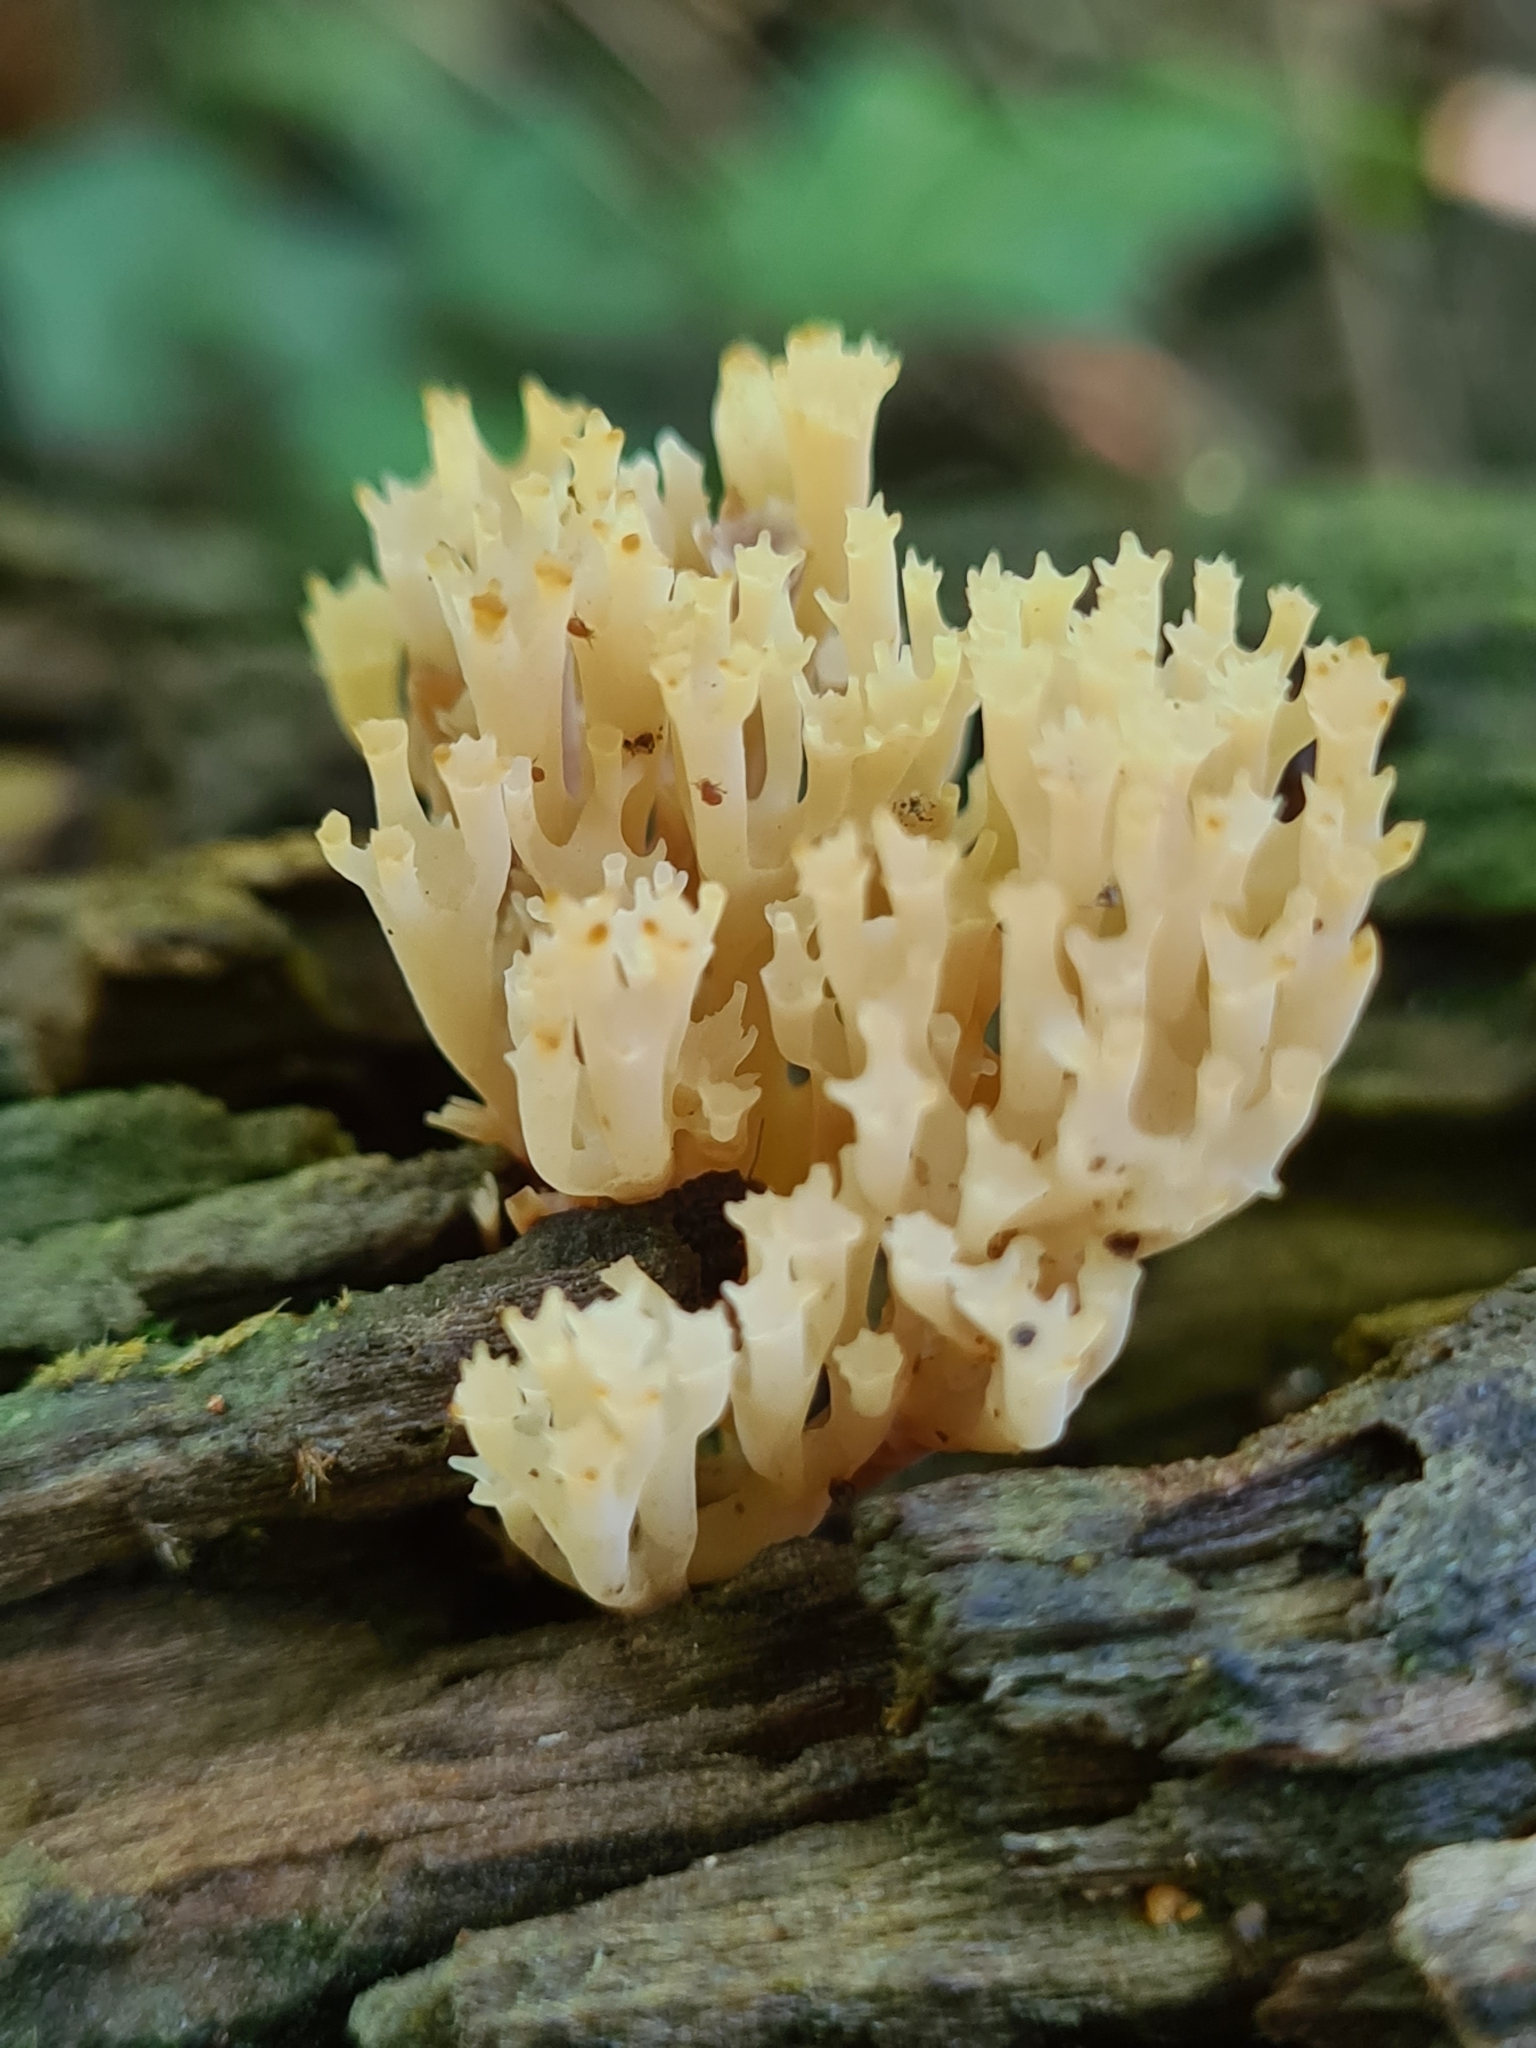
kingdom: Fungi
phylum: Basidiomycota
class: Agaricomycetes
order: Russulales
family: Auriscalpiaceae
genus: Artomyces
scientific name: Artomyces pyxidatus
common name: Crown-tipped coral fungus
